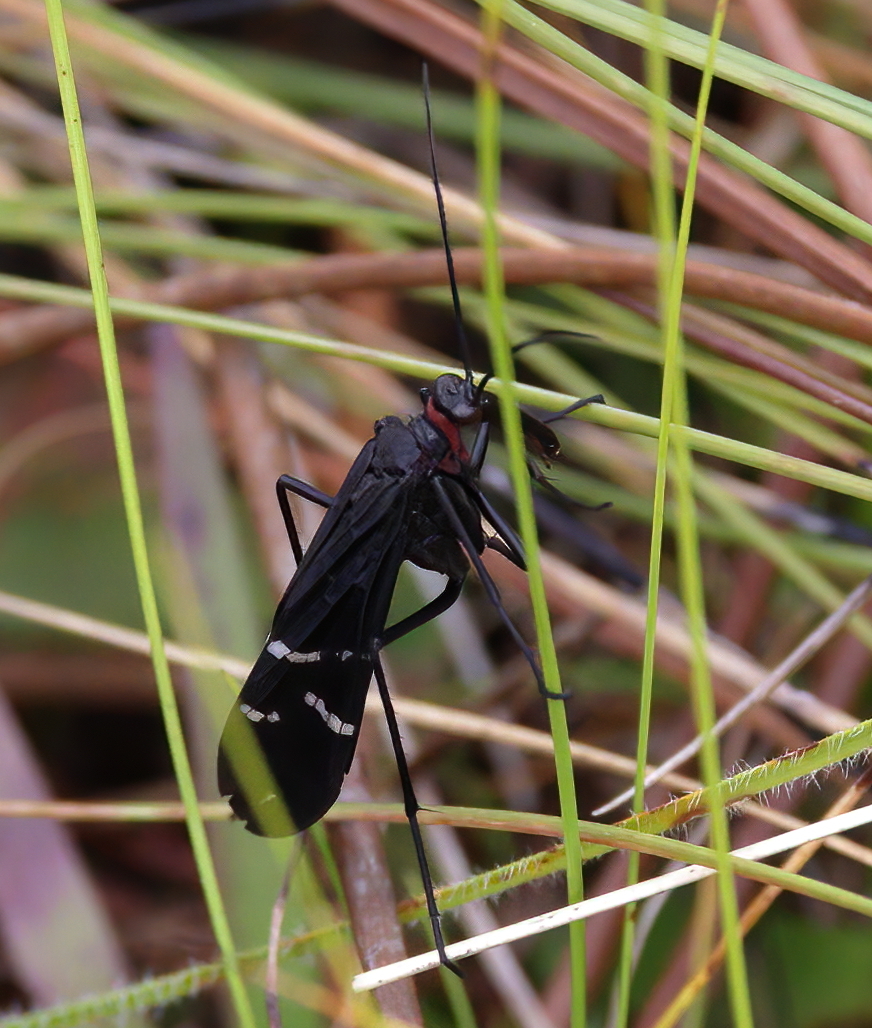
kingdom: Animalia
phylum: Arthropoda
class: Insecta
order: Mecoptera
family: Panorpidae
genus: Panorpa
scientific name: Panorpa lugubris
